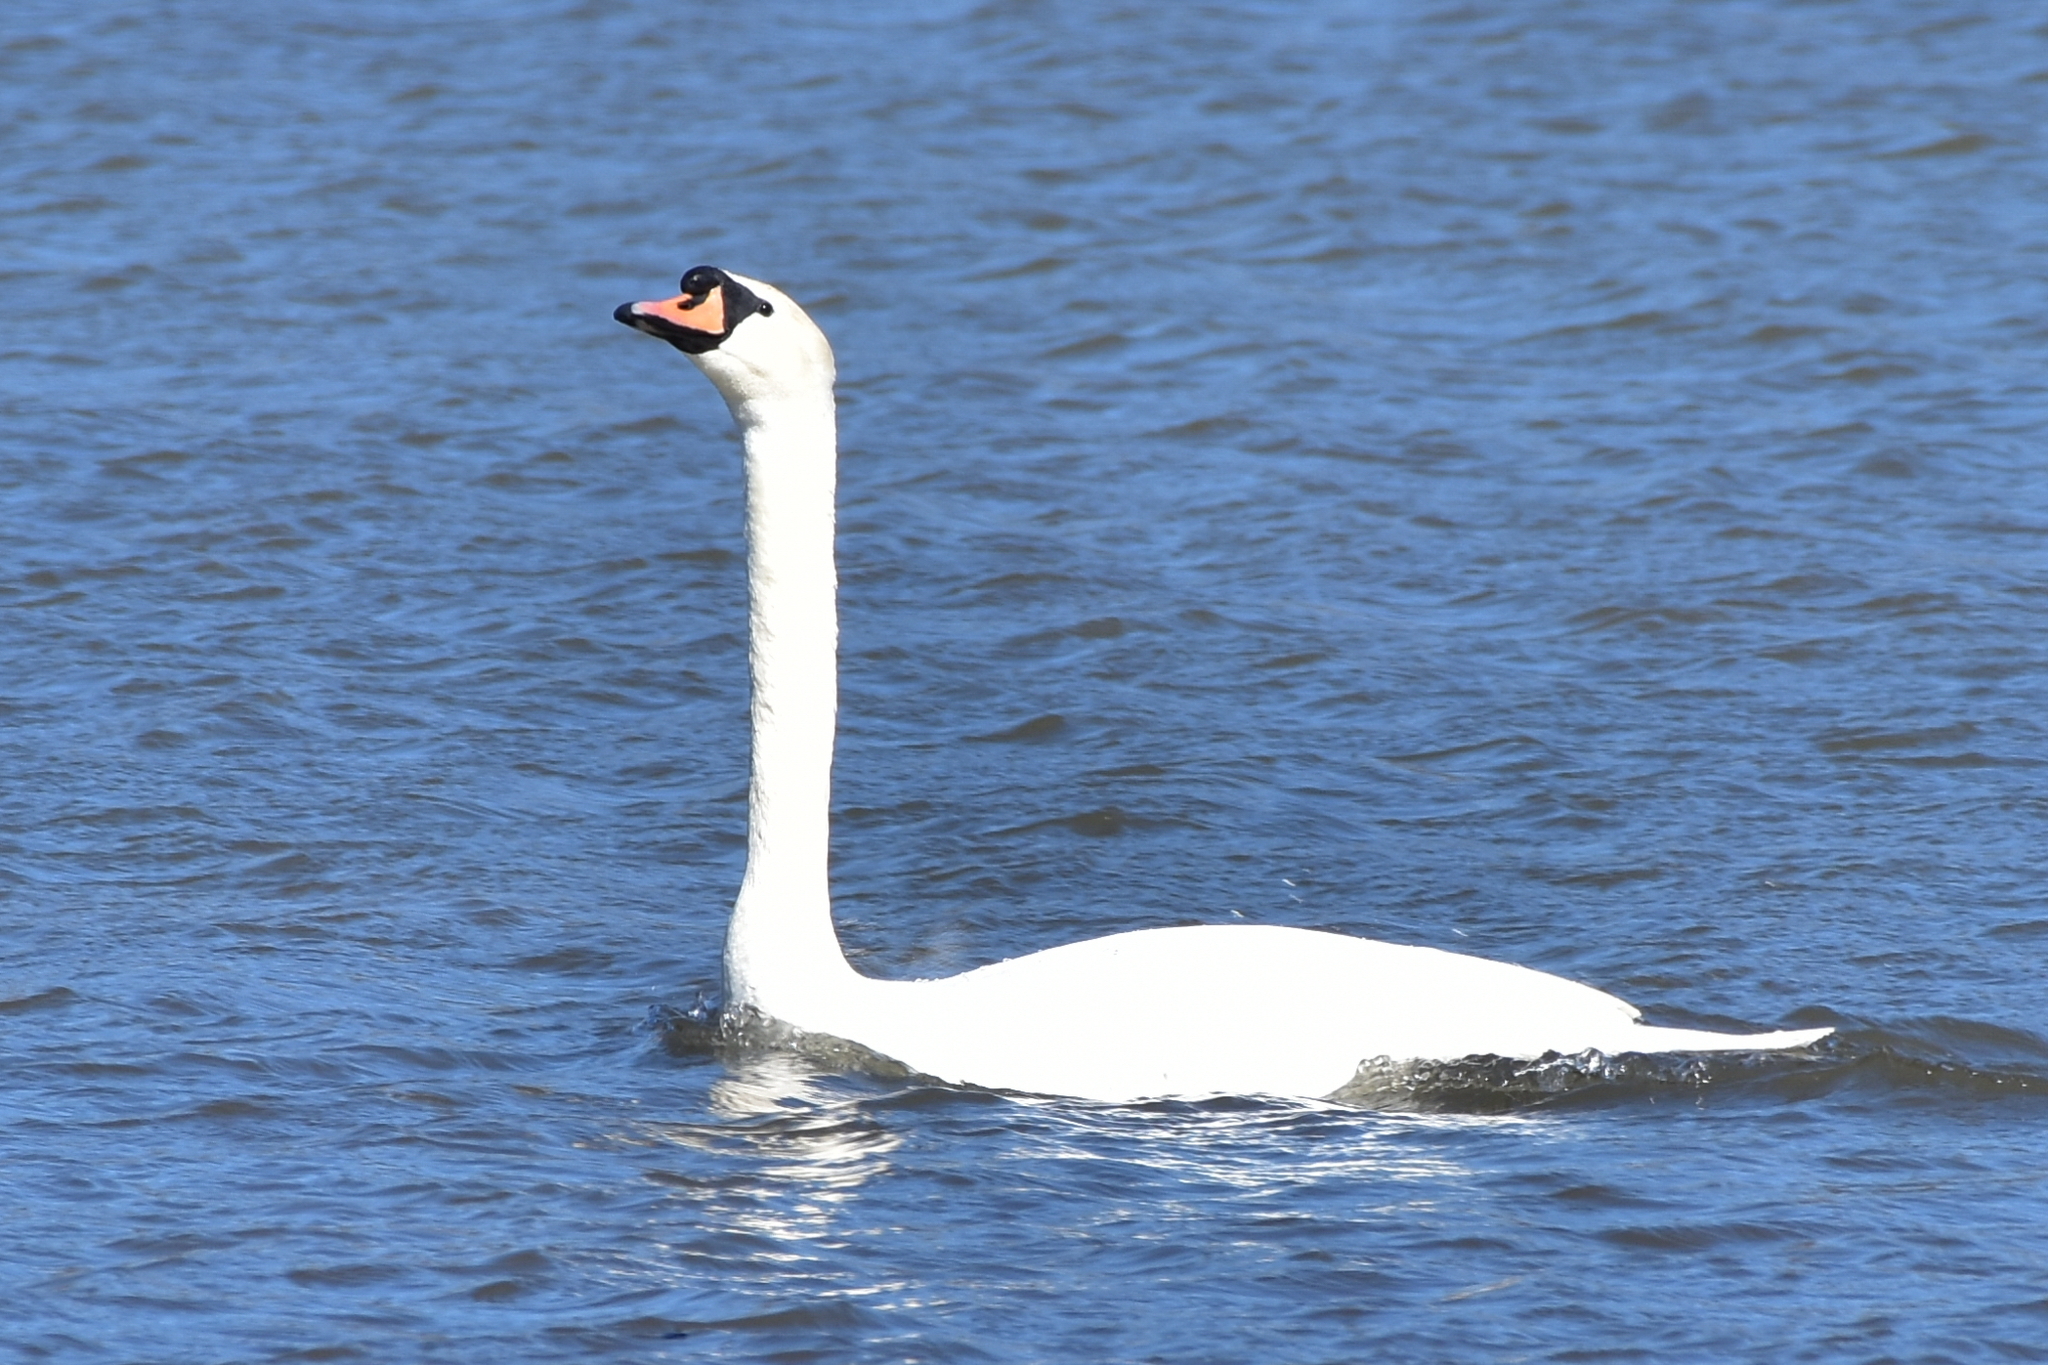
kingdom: Animalia
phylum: Chordata
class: Aves
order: Anseriformes
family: Anatidae
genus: Cygnus
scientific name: Cygnus olor
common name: Mute swan
